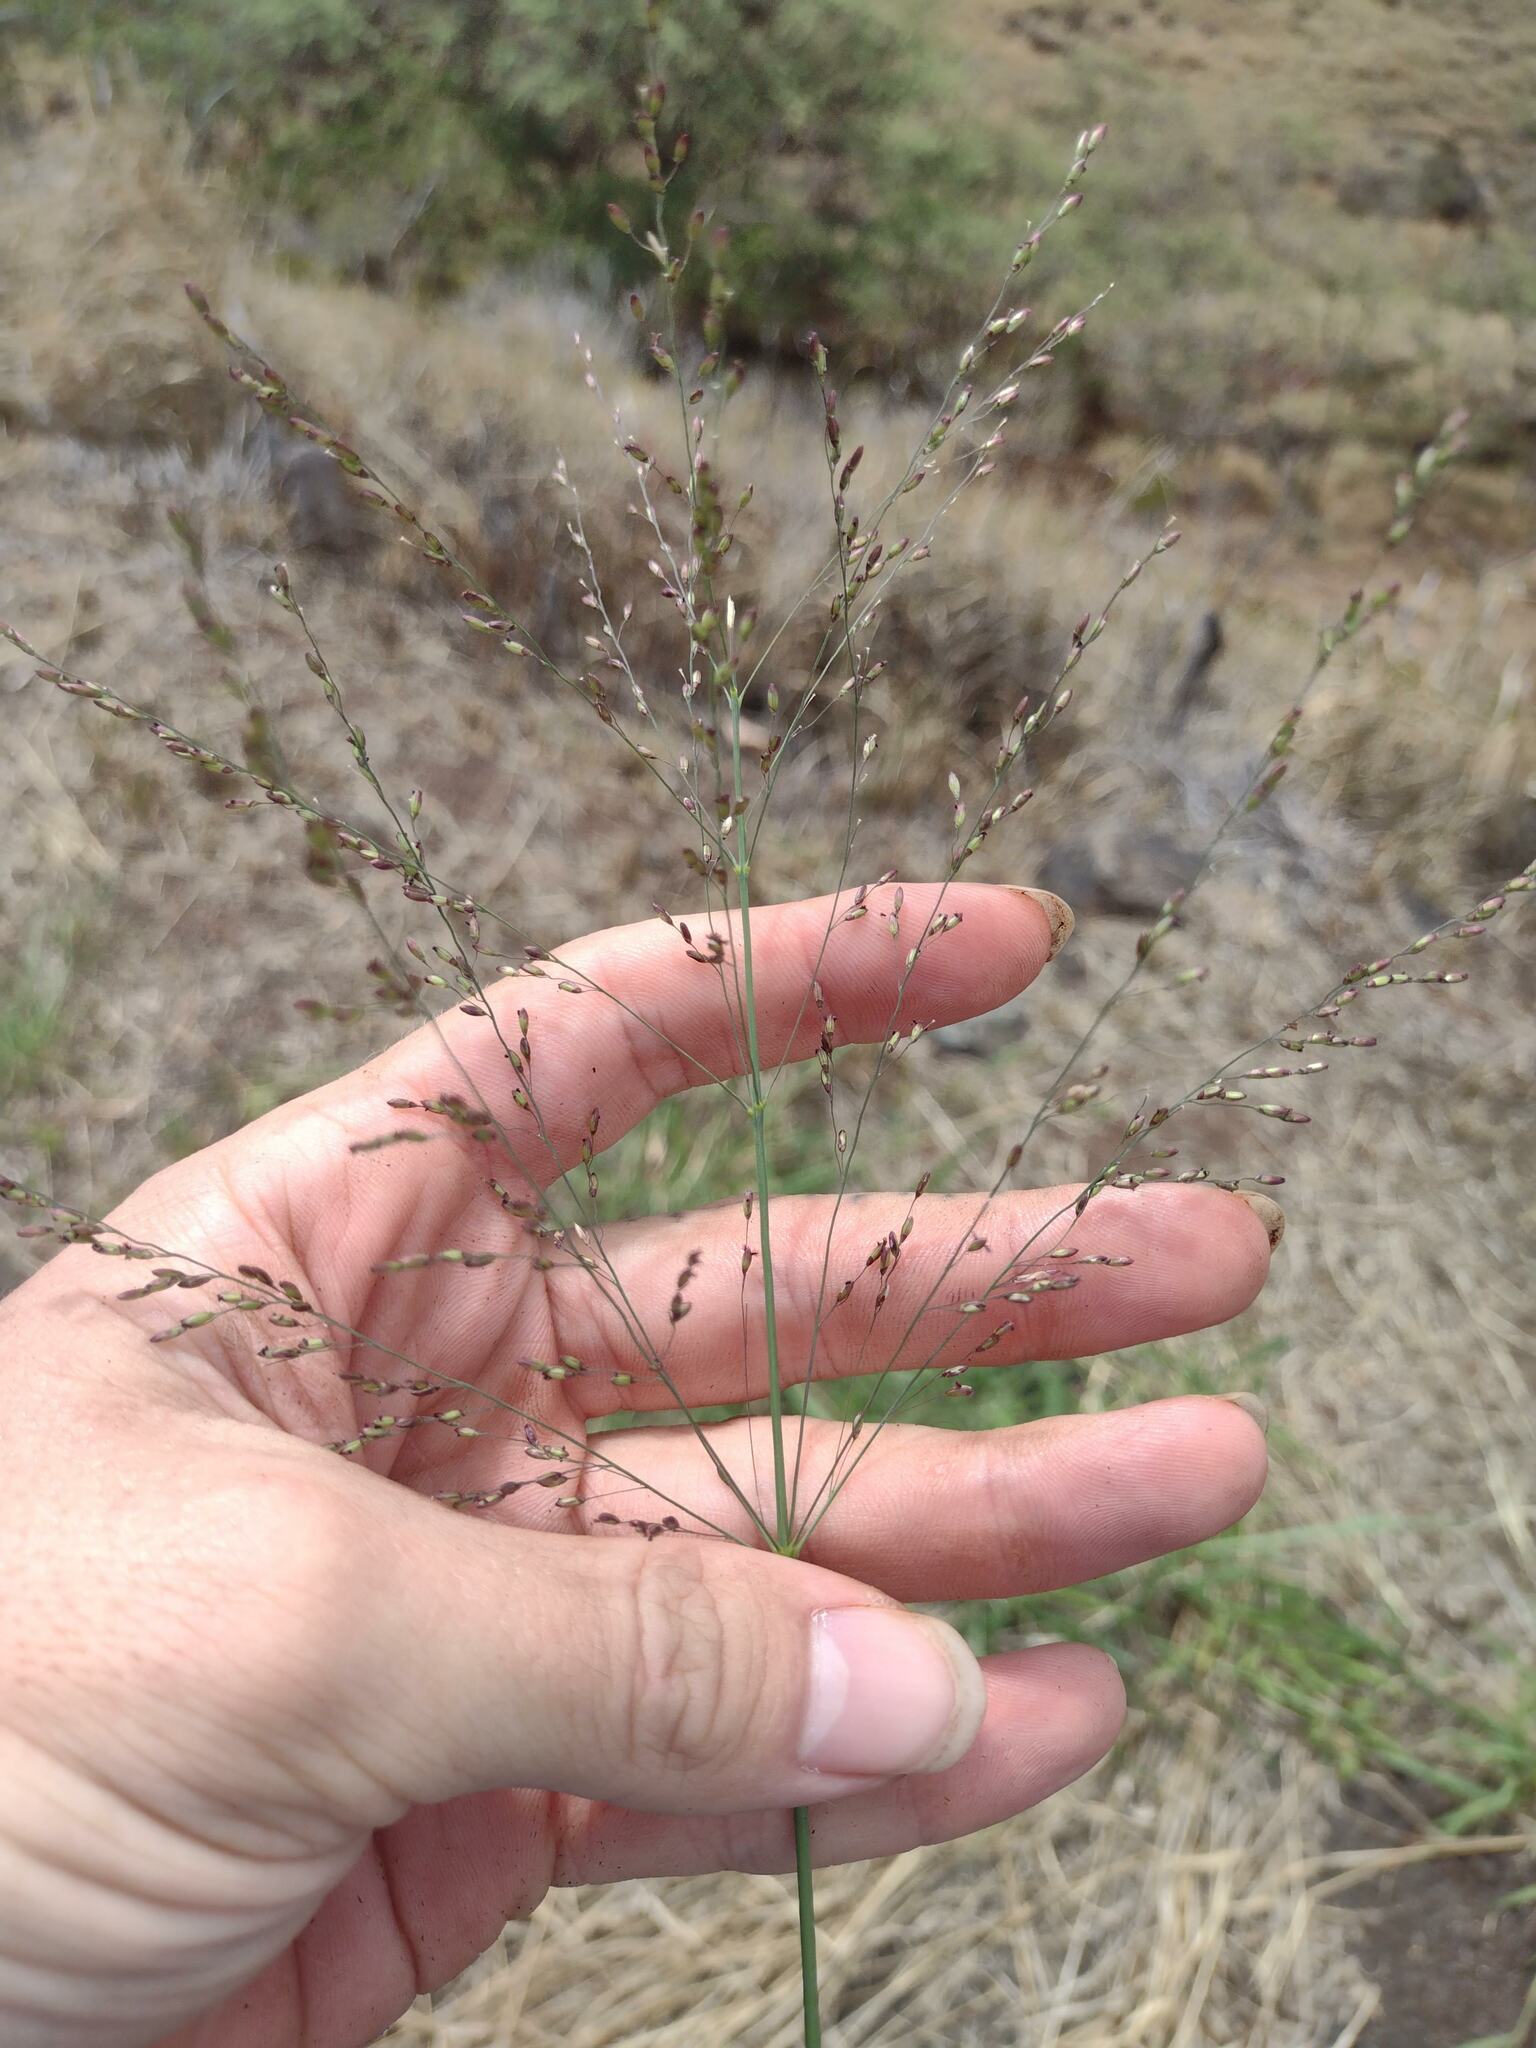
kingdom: Plantae
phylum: Tracheophyta
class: Liliopsida
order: Poales
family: Poaceae
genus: Megathyrsus
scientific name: Megathyrsus maximus
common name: Guineagrass
